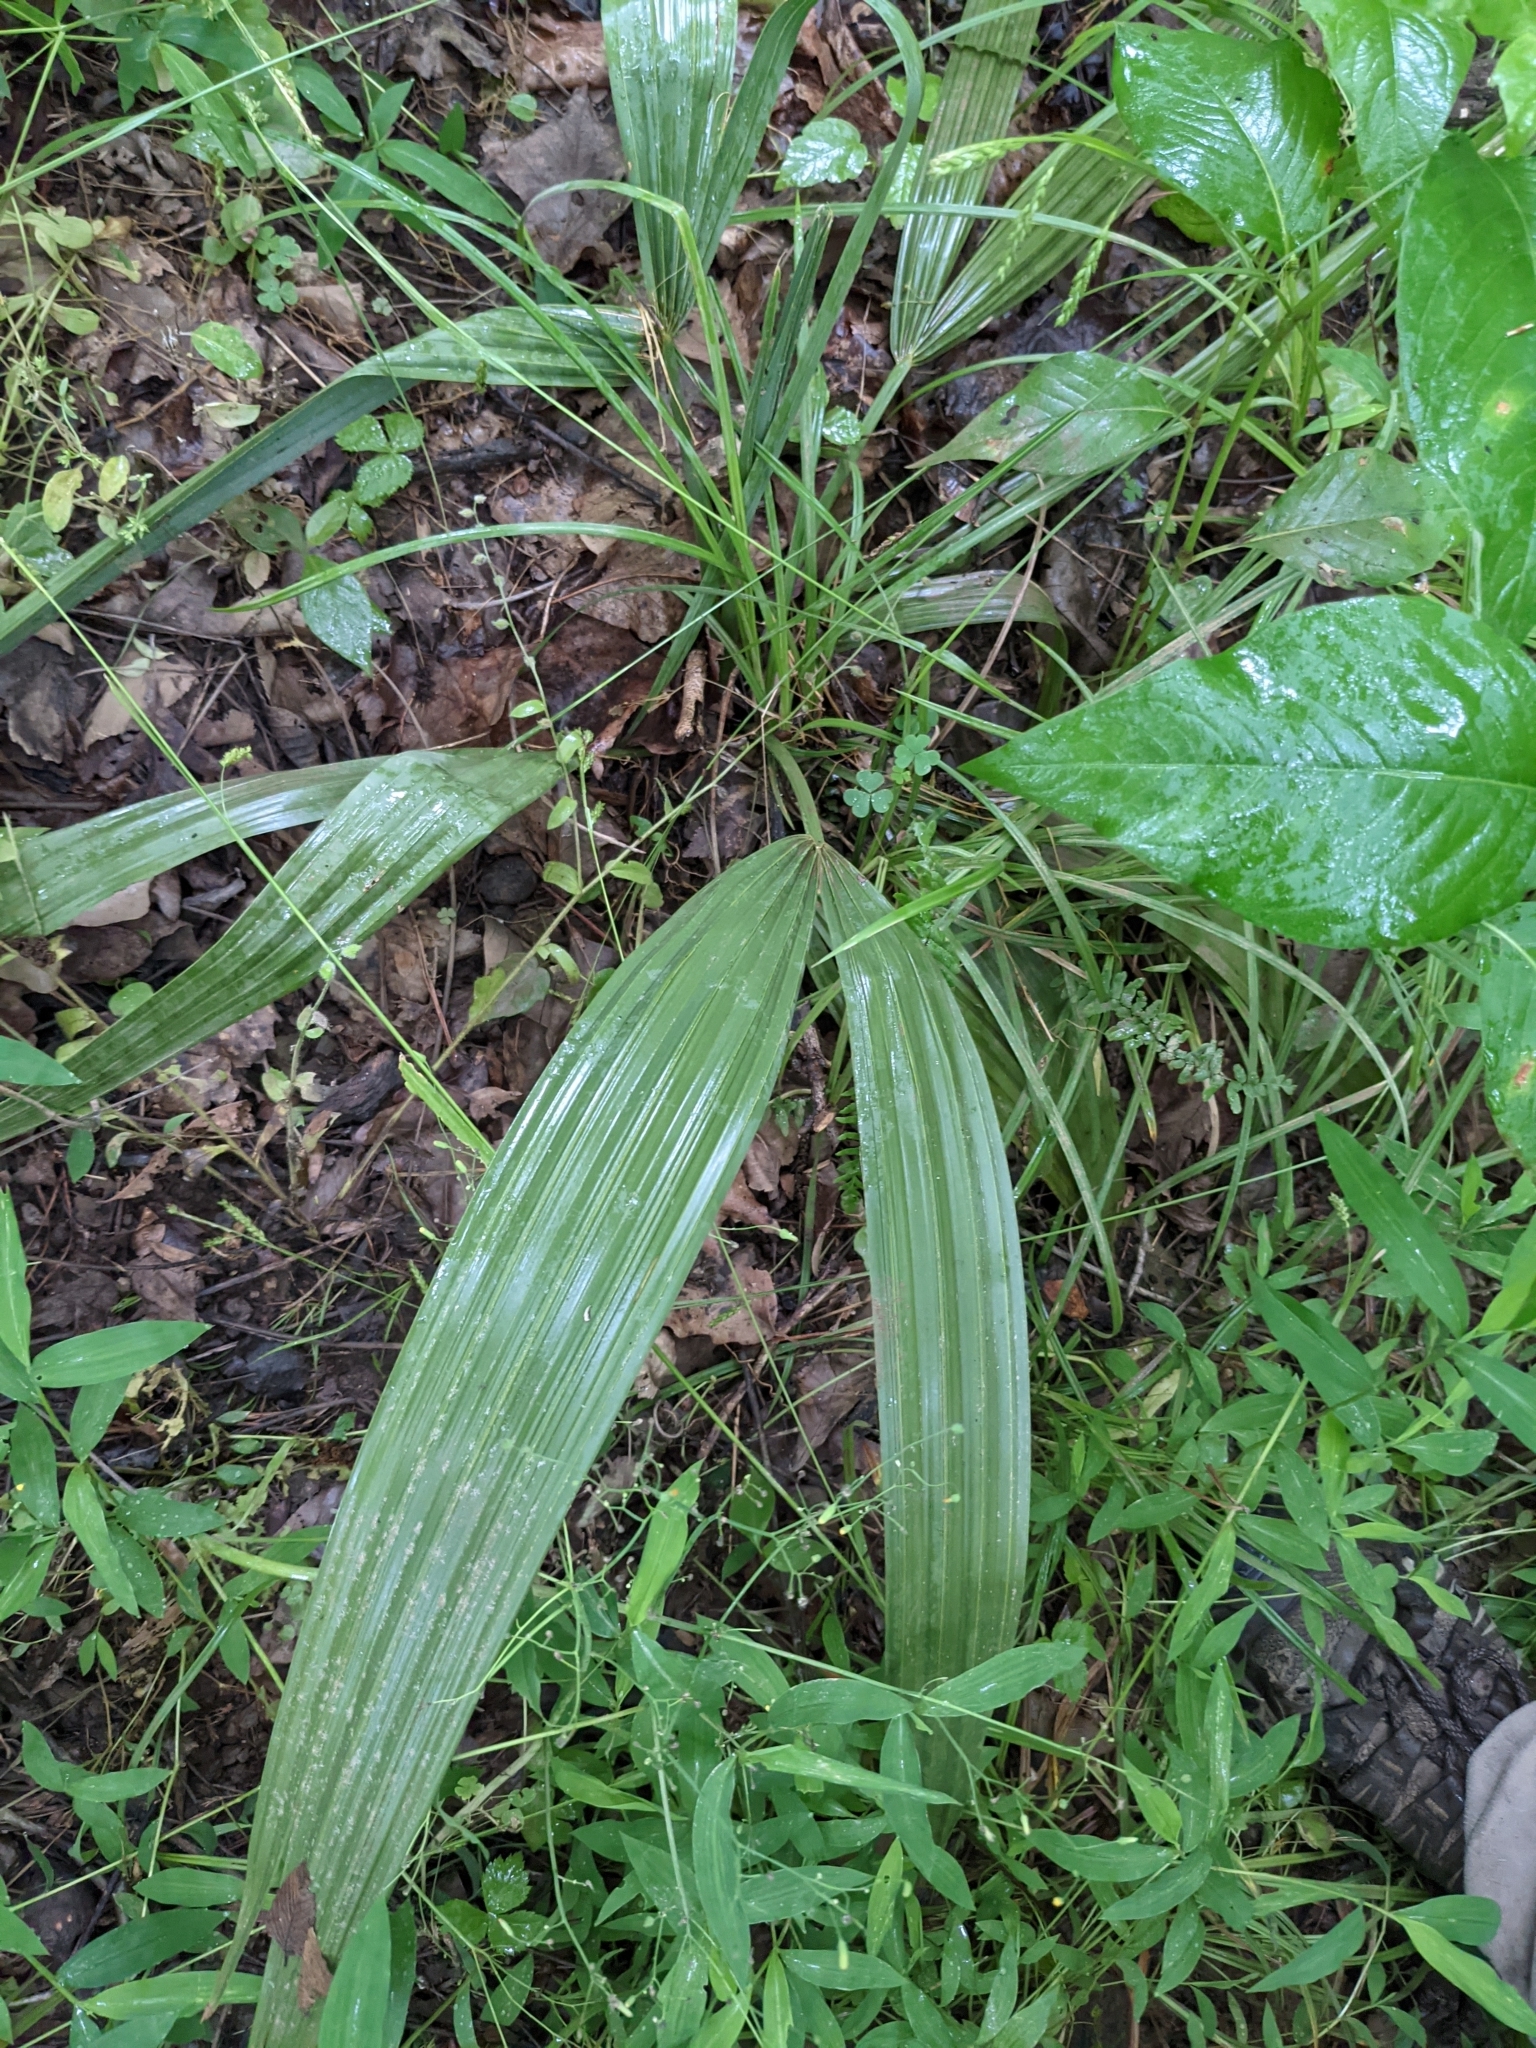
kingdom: Plantae
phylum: Tracheophyta
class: Liliopsida
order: Arecales
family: Arecaceae
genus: Sabal
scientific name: Sabal minor
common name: Dwarf palmetto
